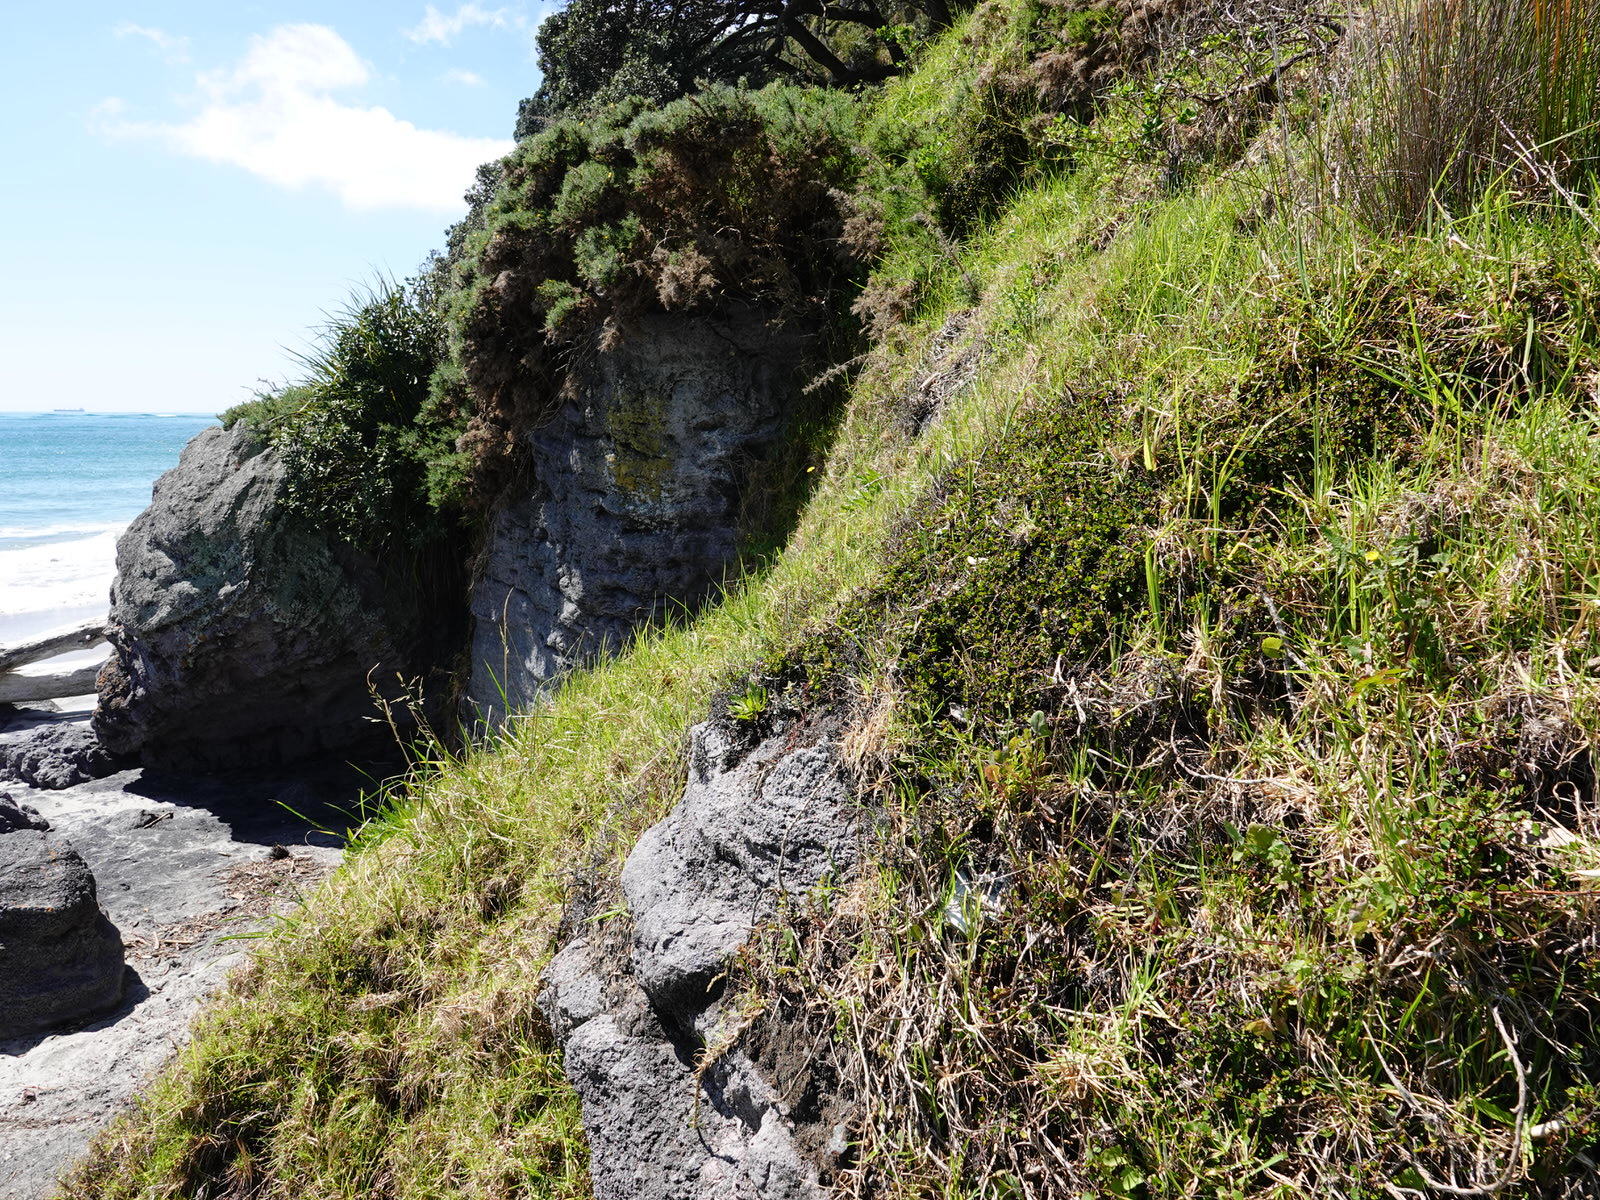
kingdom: Plantae
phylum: Tracheophyta
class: Magnoliopsida
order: Caryophyllales
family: Polygonaceae
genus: Muehlenbeckia
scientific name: Muehlenbeckia axillaris
